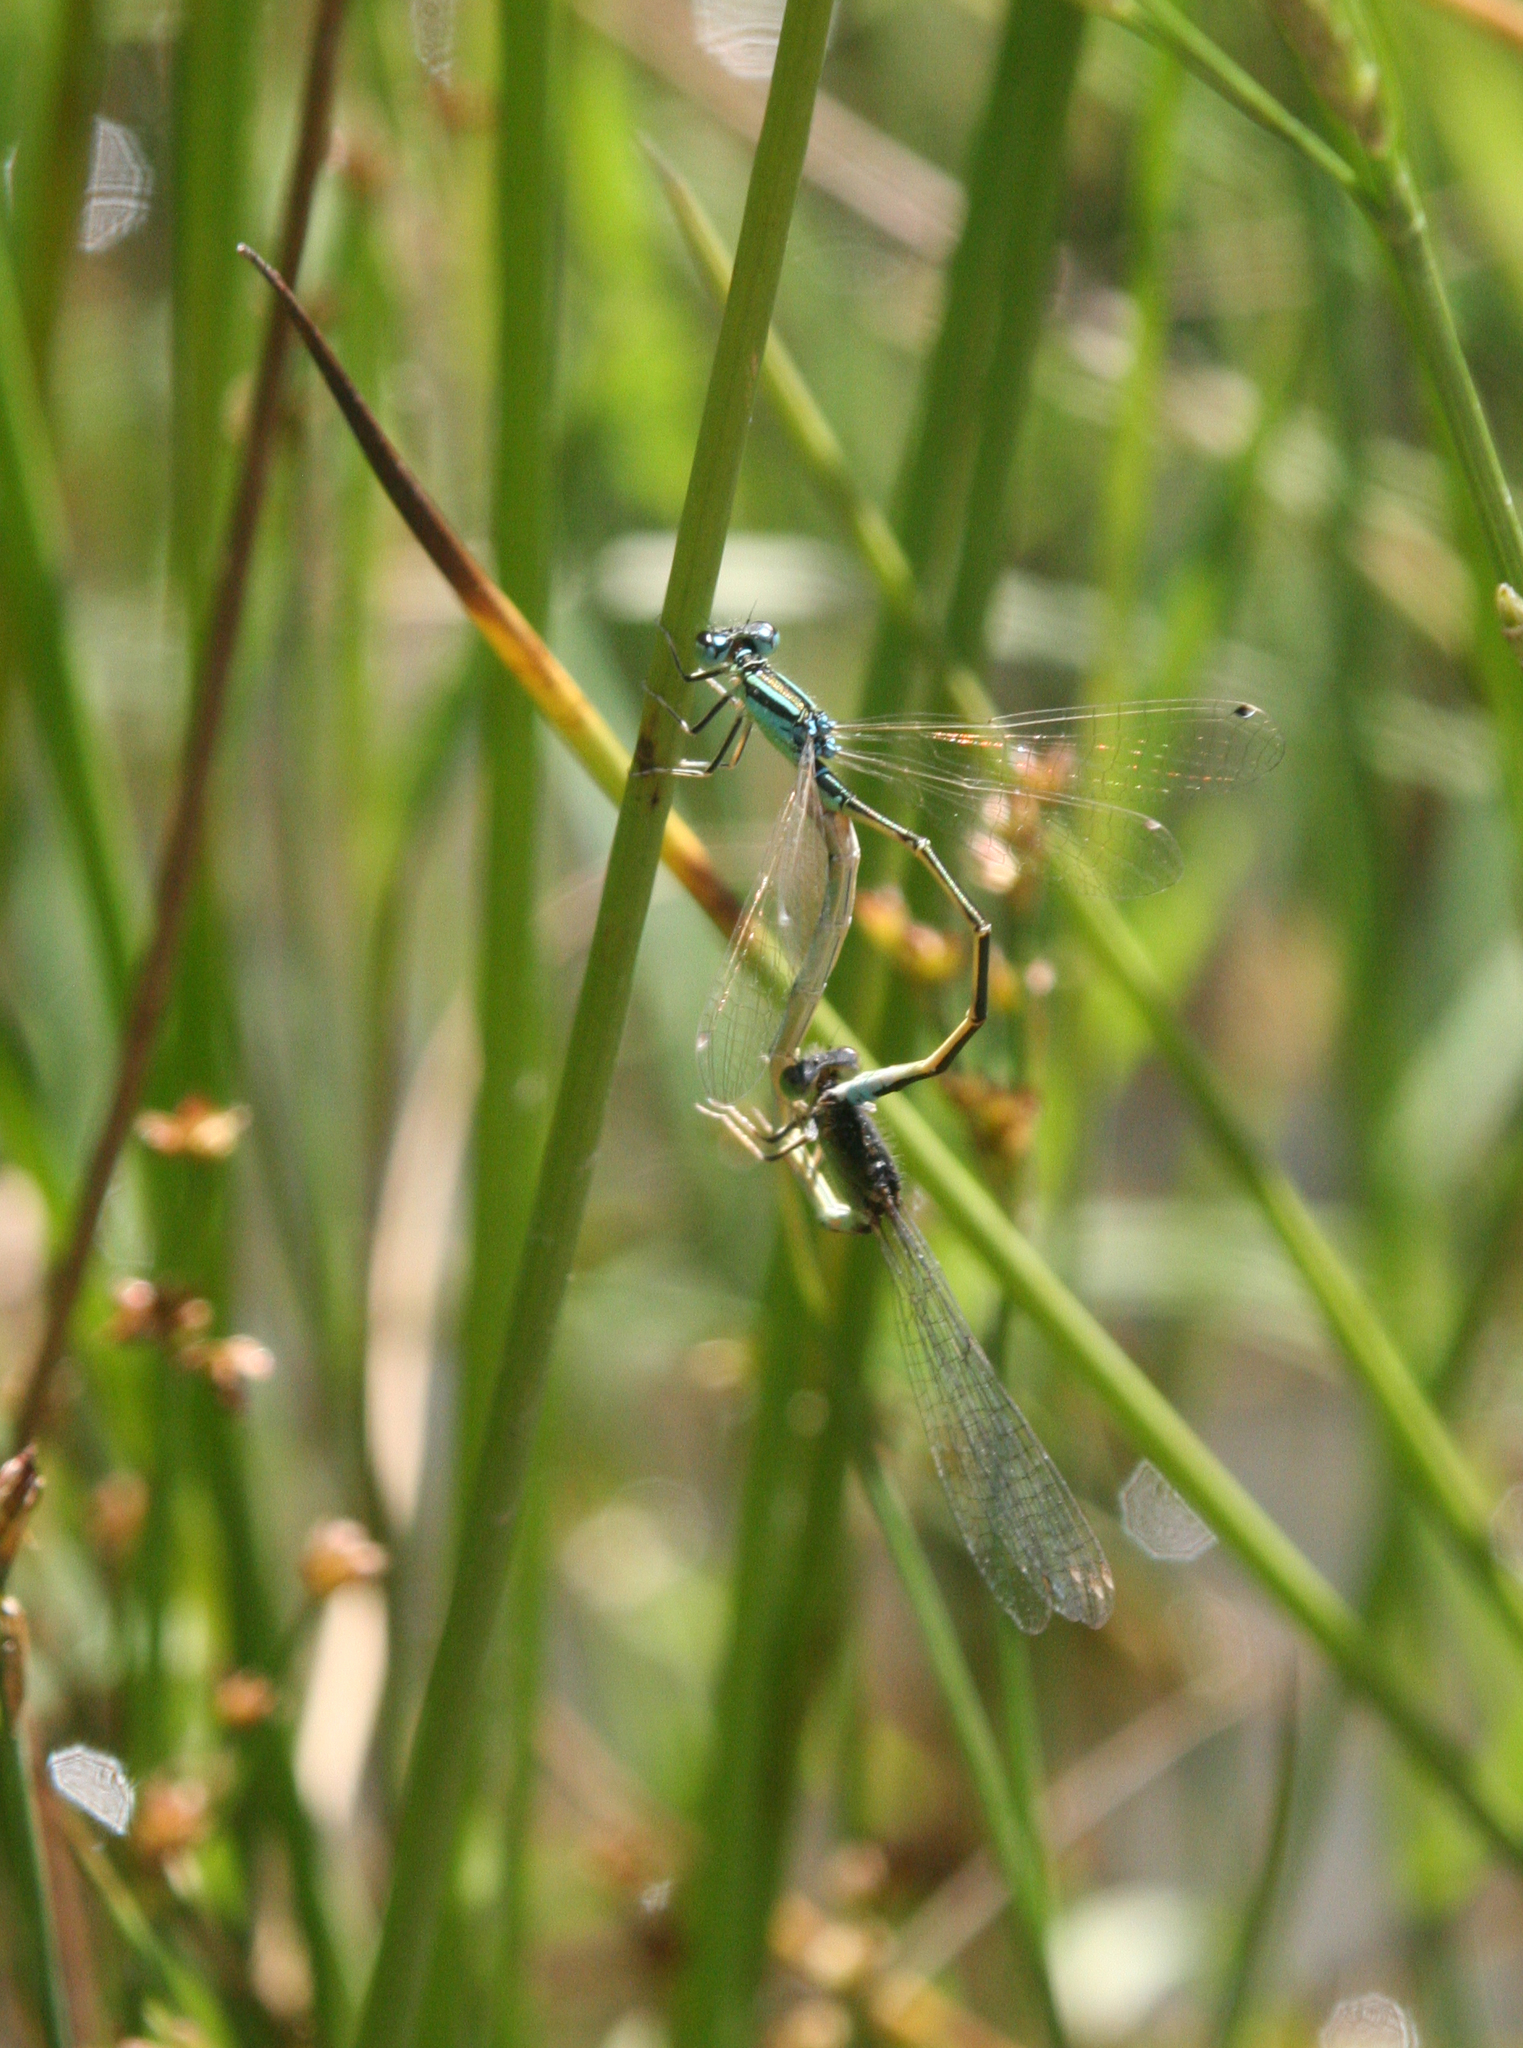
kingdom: Animalia
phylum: Arthropoda
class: Insecta
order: Odonata
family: Coenagrionidae
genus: Ischnura
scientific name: Ischnura pumilio
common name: Scarce blue-tailed damselfly
